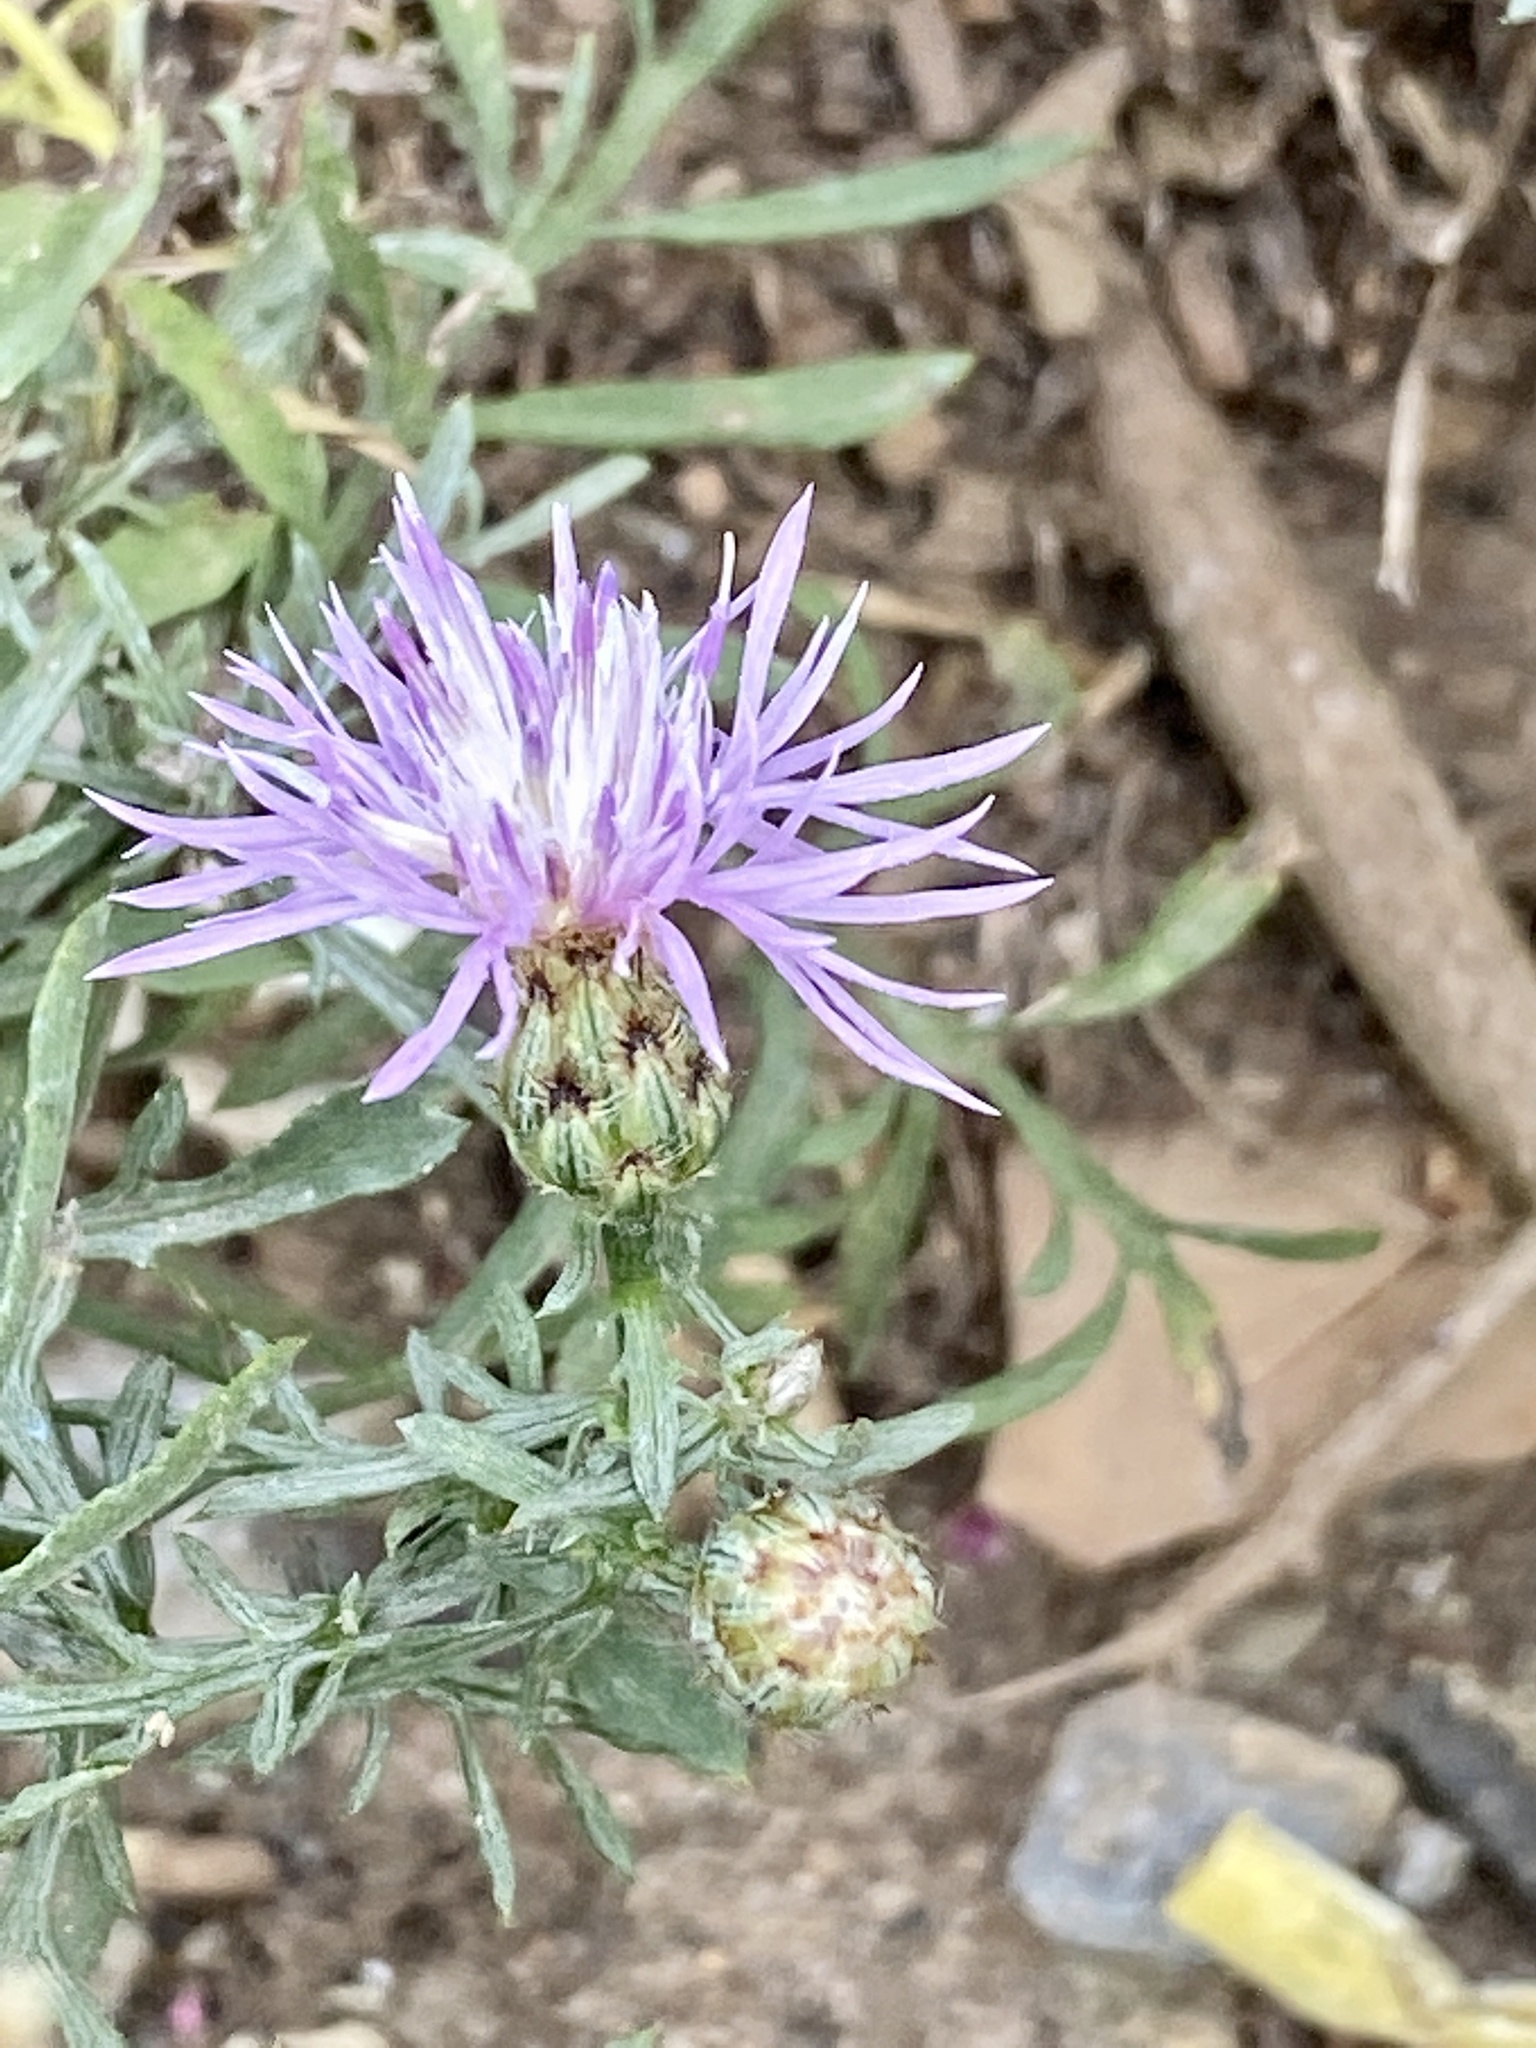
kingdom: Plantae
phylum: Tracheophyta
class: Magnoliopsida
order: Asterales
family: Asteraceae
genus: Centaurea
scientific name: Centaurea stoebe
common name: Spotted knapweed
